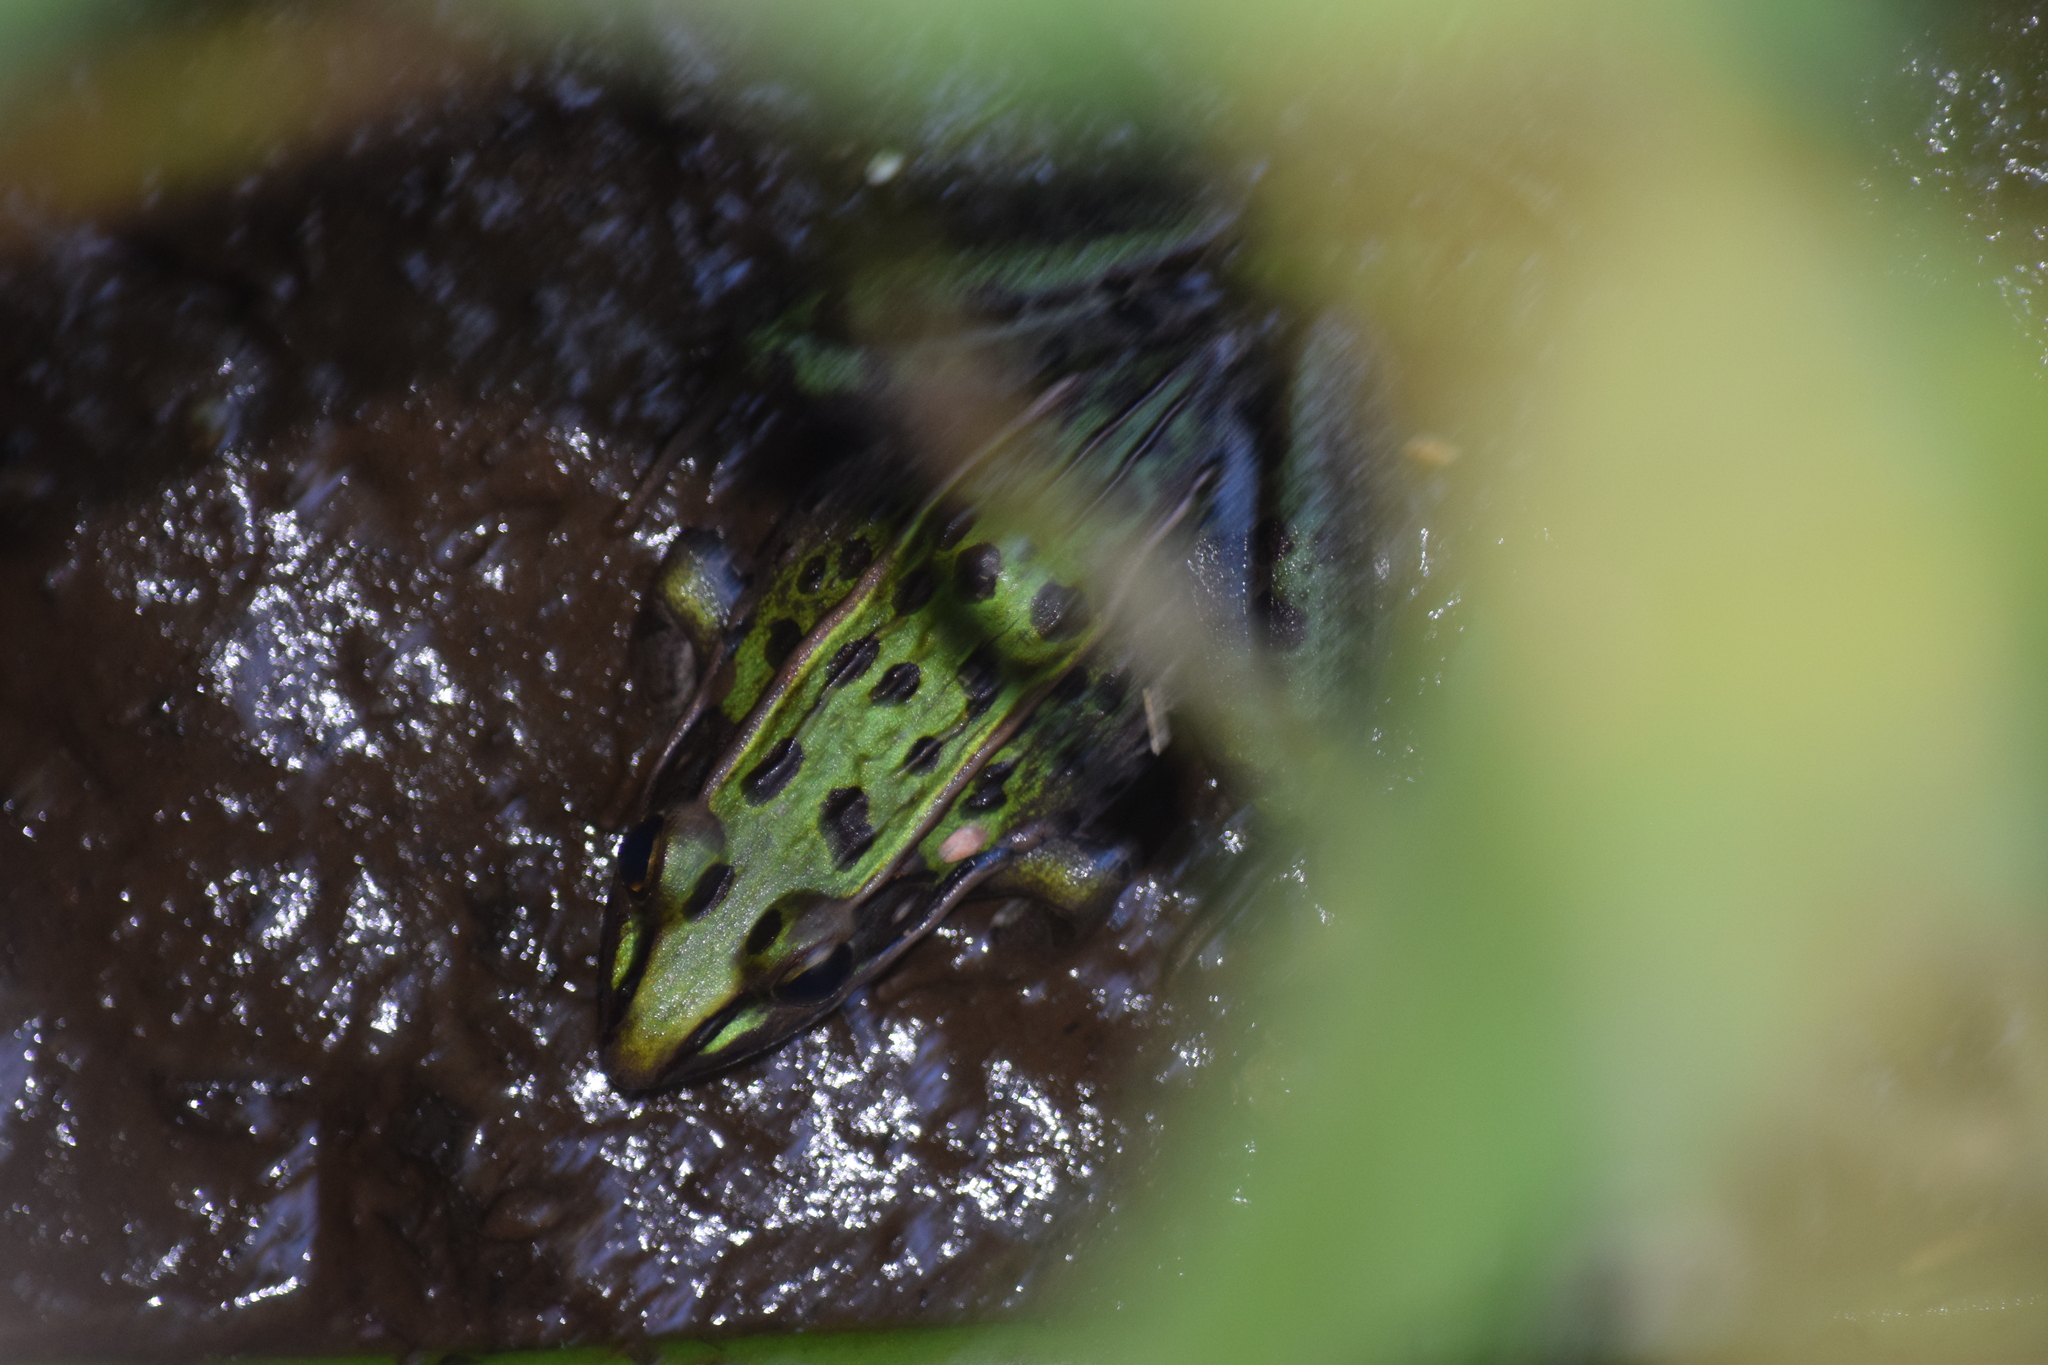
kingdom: Animalia
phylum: Chordata
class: Amphibia
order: Anura
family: Ranidae
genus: Lithobates
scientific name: Lithobates sphenocephalus
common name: Southern leopard frog
